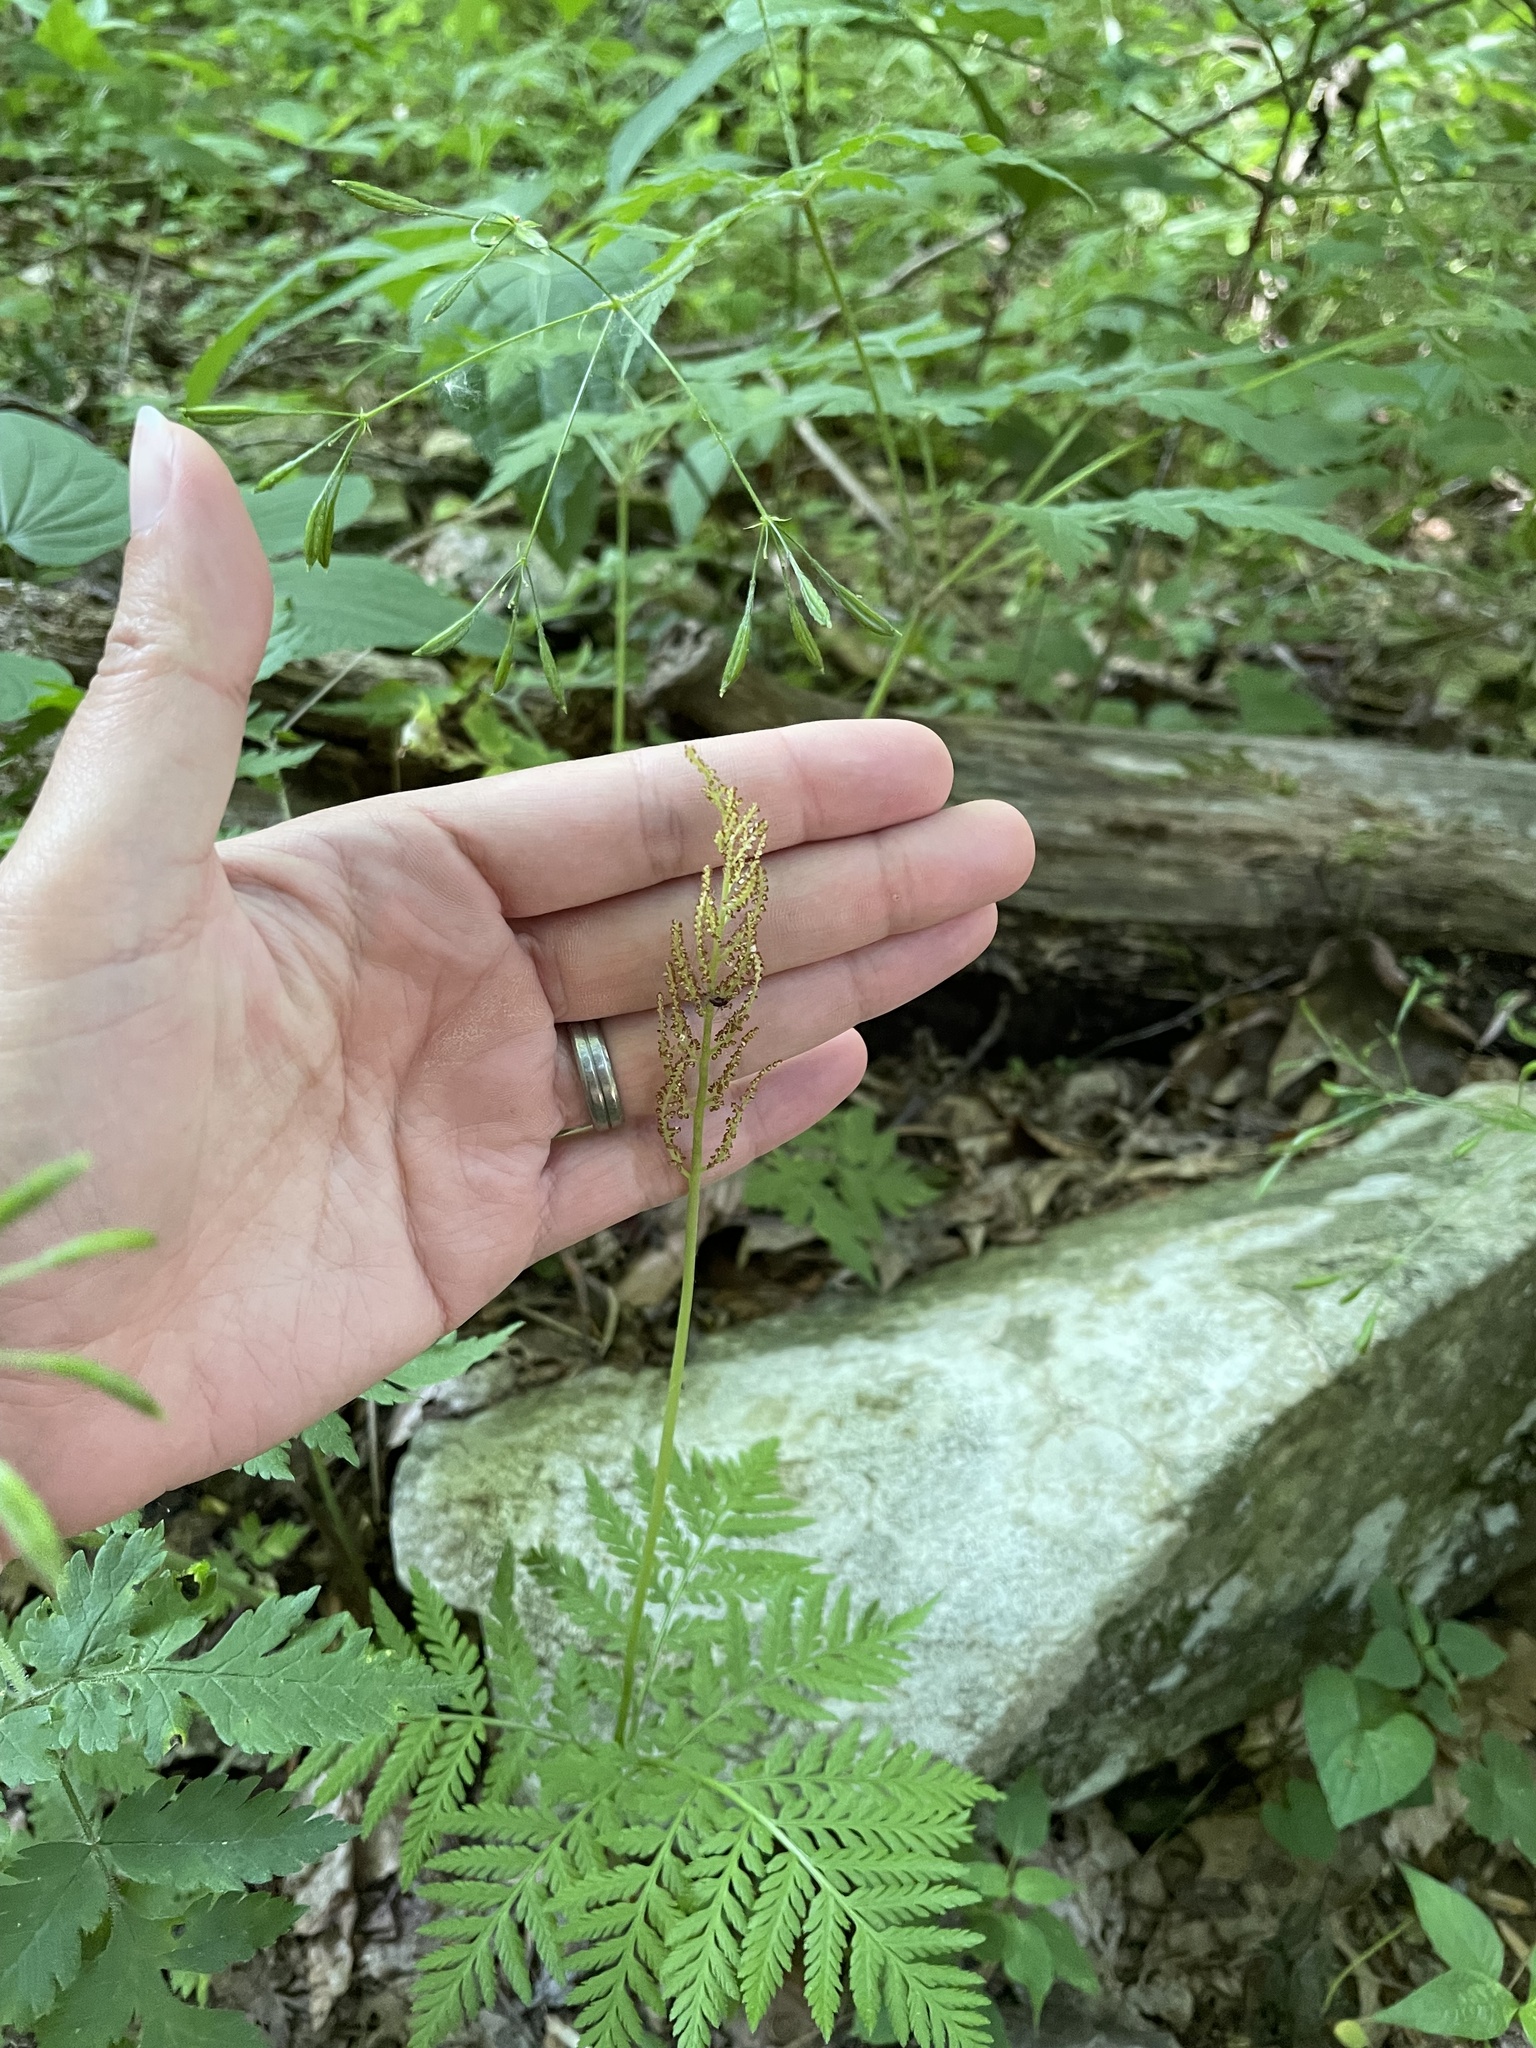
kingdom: Plantae
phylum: Tracheophyta
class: Polypodiopsida
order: Ophioglossales
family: Ophioglossaceae
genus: Botrypus
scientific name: Botrypus virginianus
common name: Common grapefern
